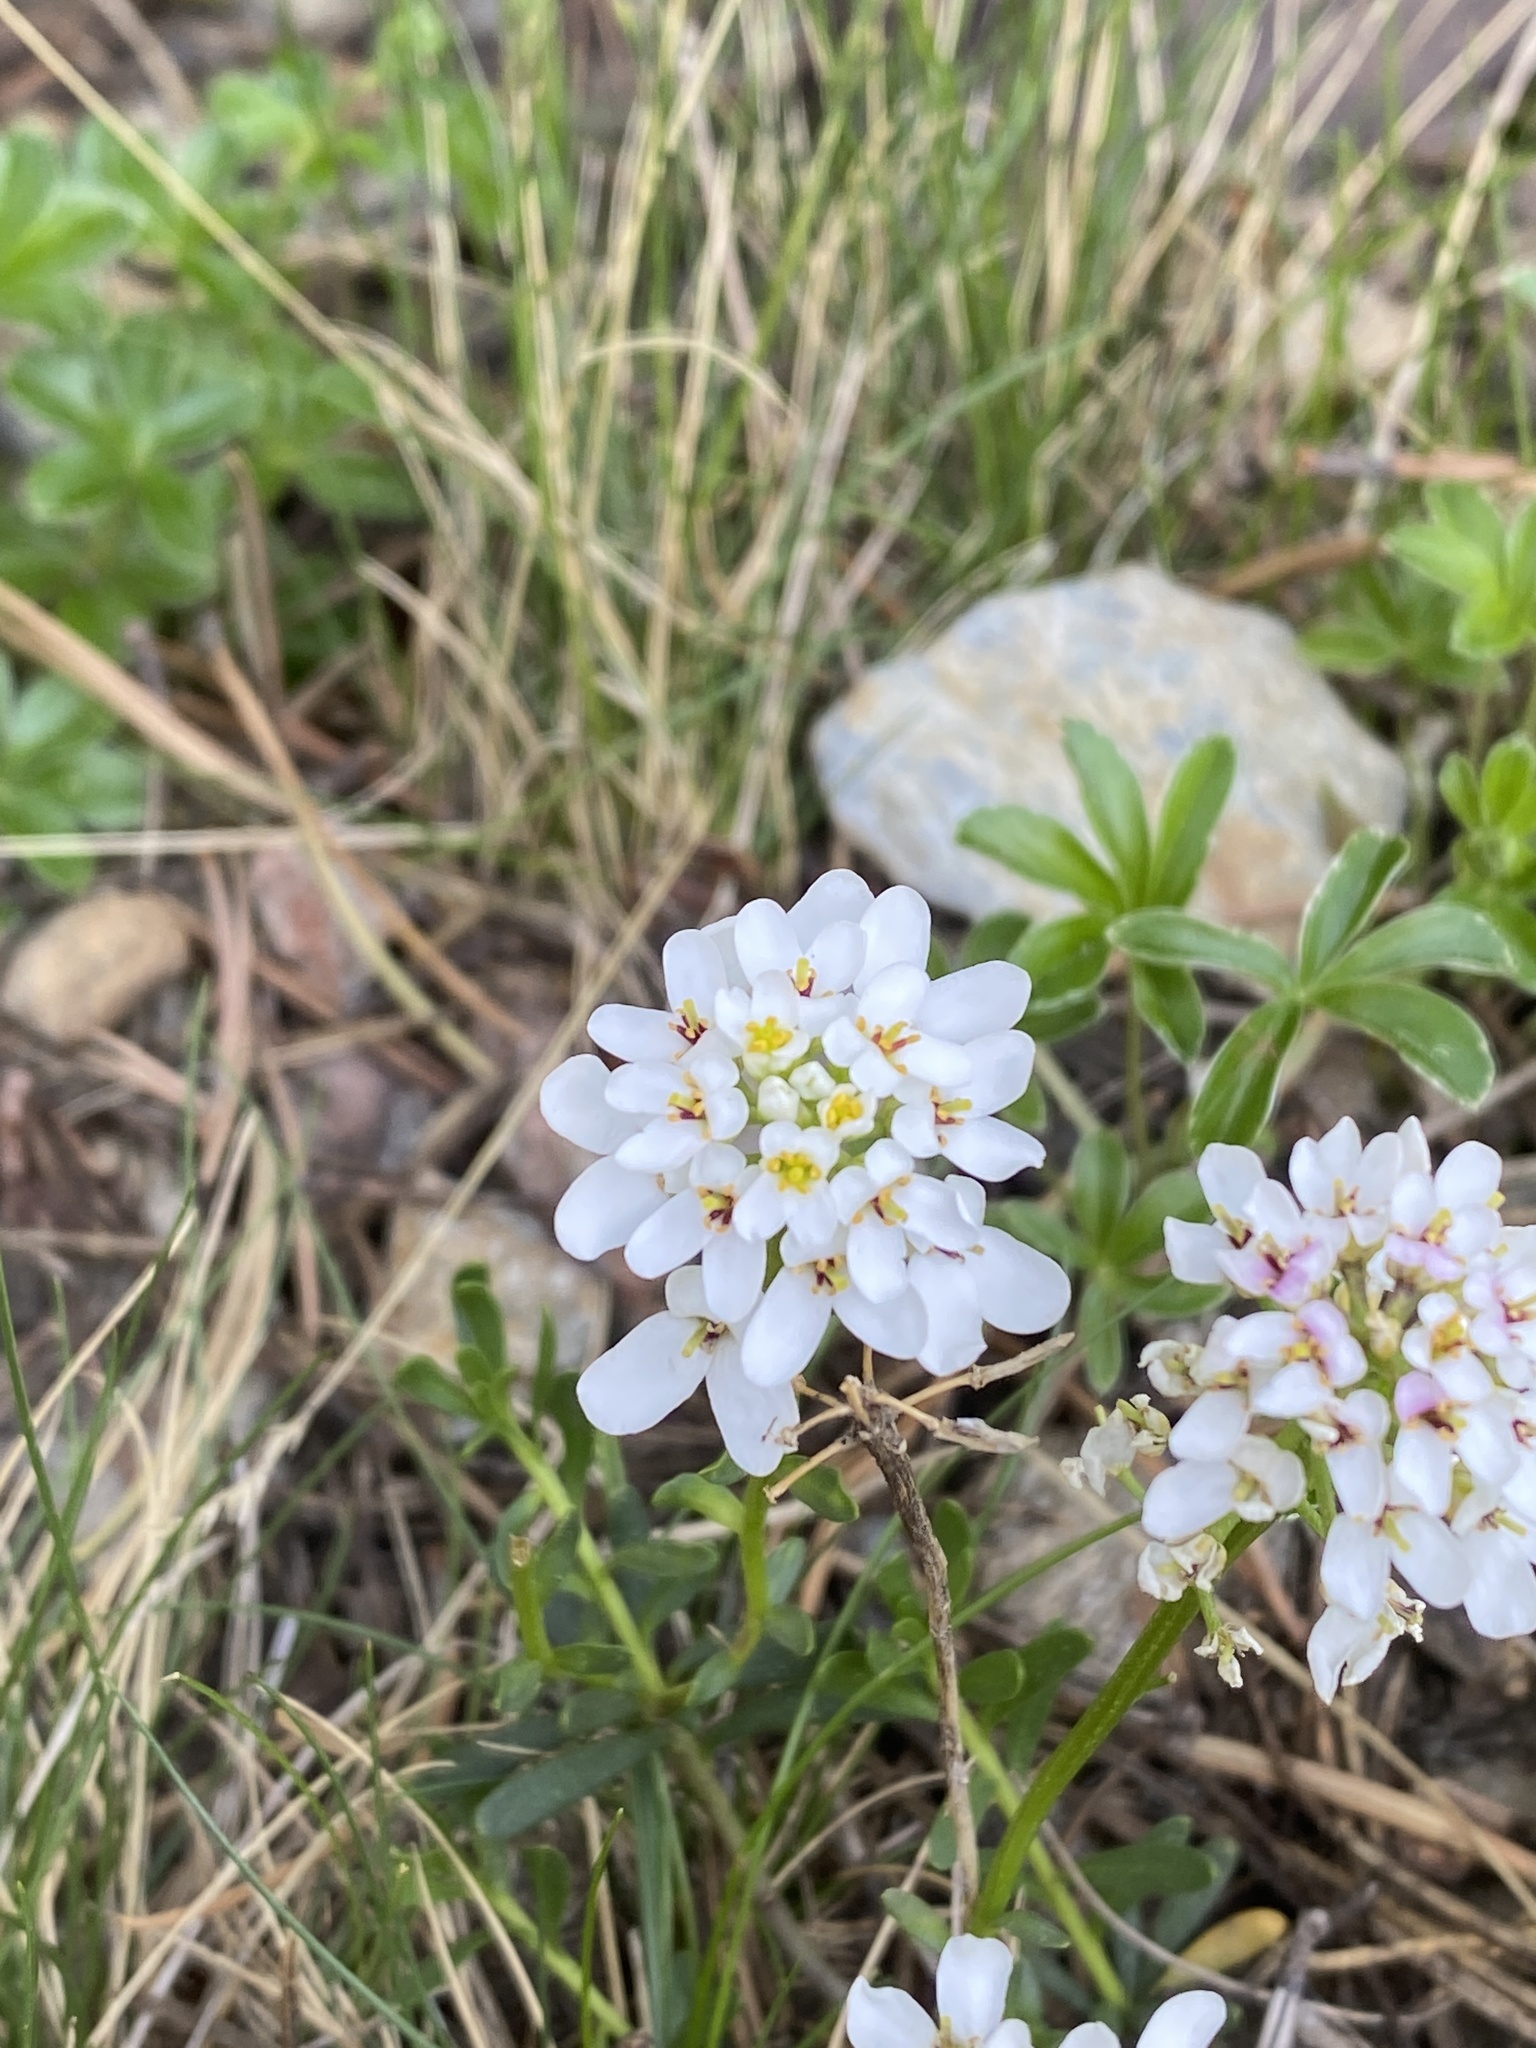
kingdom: Plantae
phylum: Tracheophyta
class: Magnoliopsida
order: Brassicales
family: Brassicaceae
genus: Iberis
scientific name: Iberis sempervirens
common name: Evergreen candytuft
